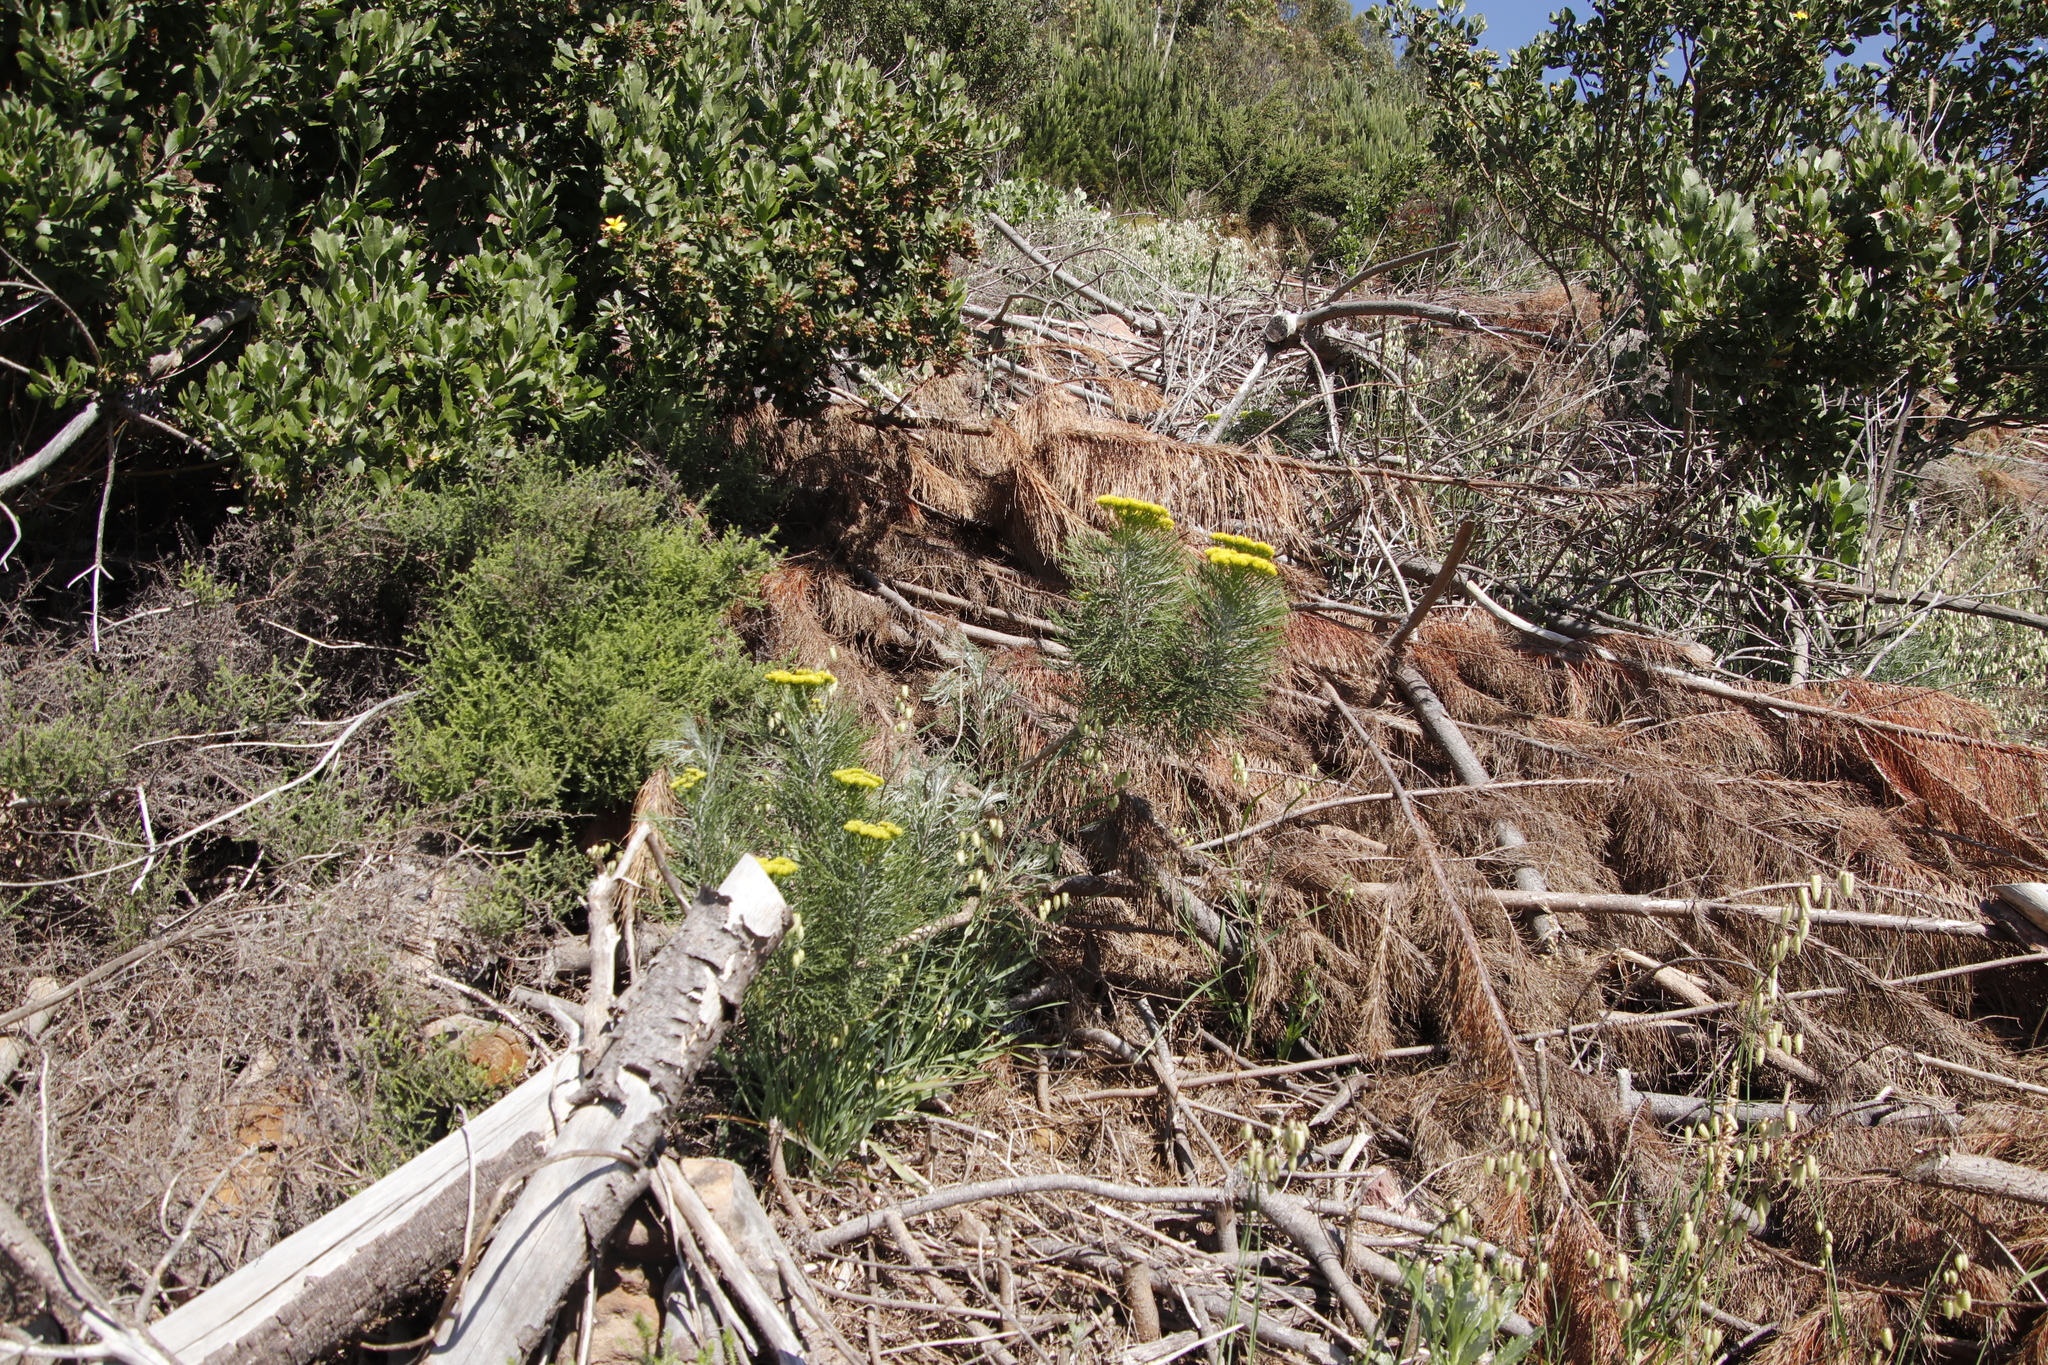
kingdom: Plantae
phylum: Tracheophyta
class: Magnoliopsida
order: Asterales
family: Asteraceae
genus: Hymenolepis
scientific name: Hymenolepis crithmifolia
